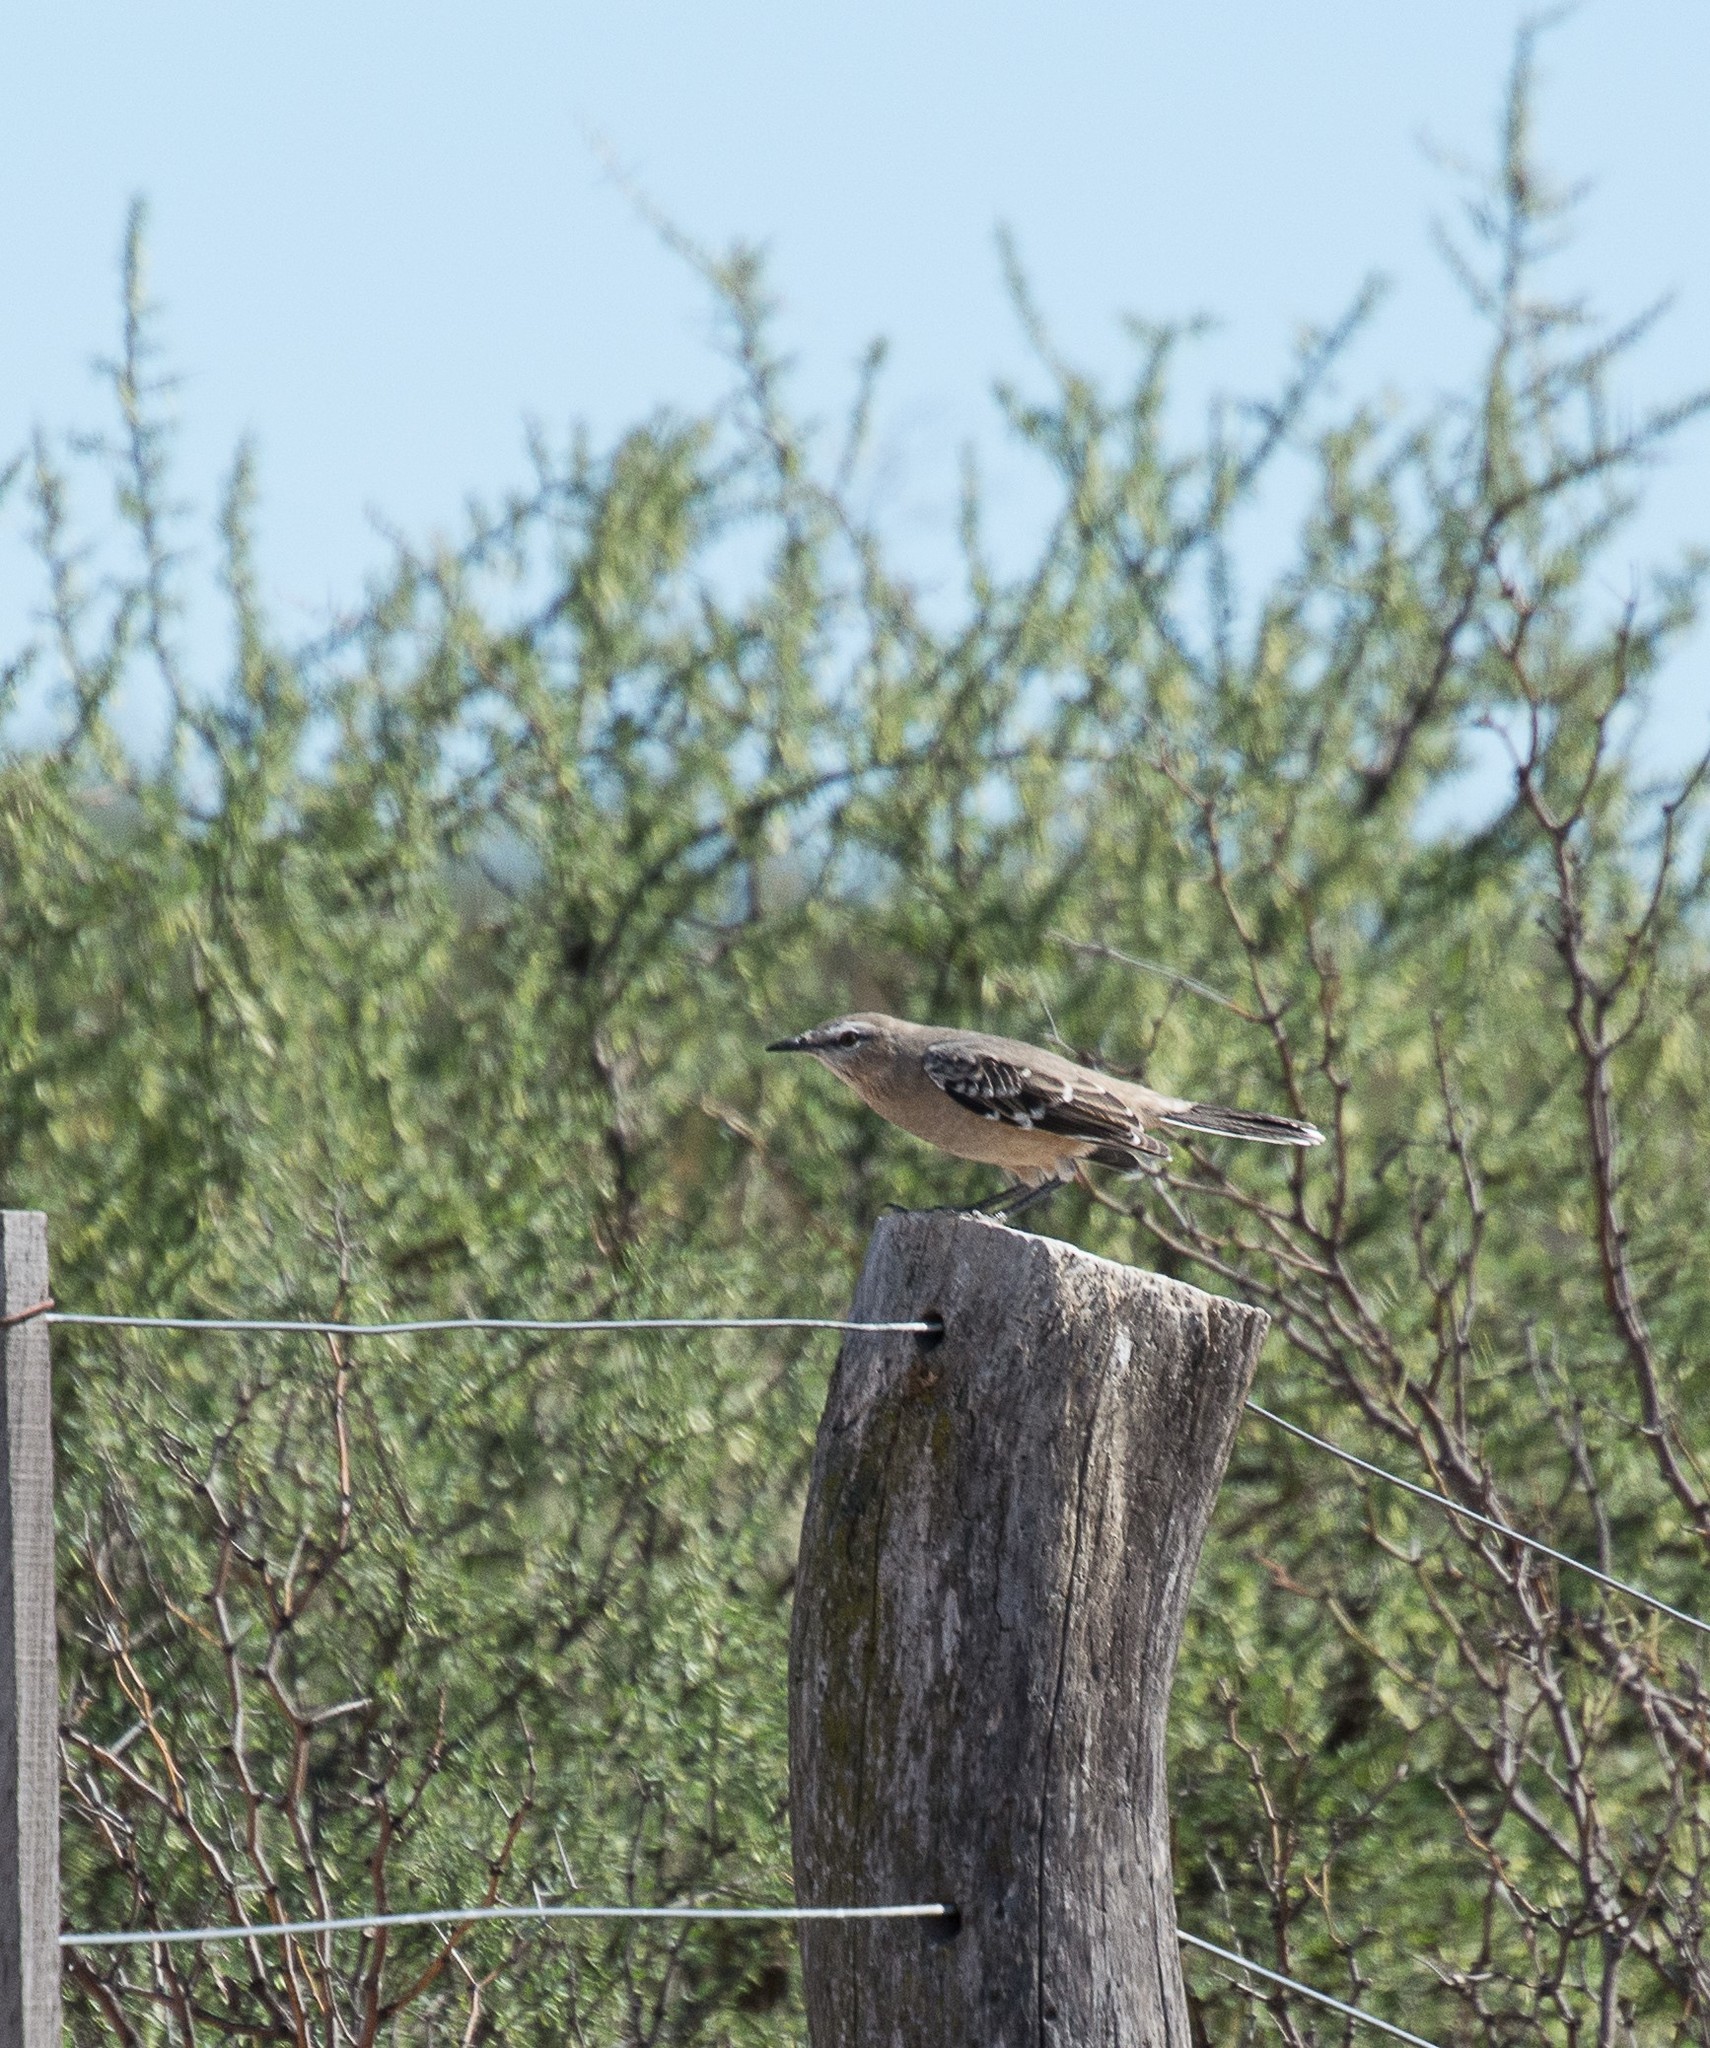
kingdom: Animalia
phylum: Chordata
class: Aves
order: Passeriformes
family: Mimidae
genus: Mimus
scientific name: Mimus patagonicus
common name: Patagonian mockingbird
